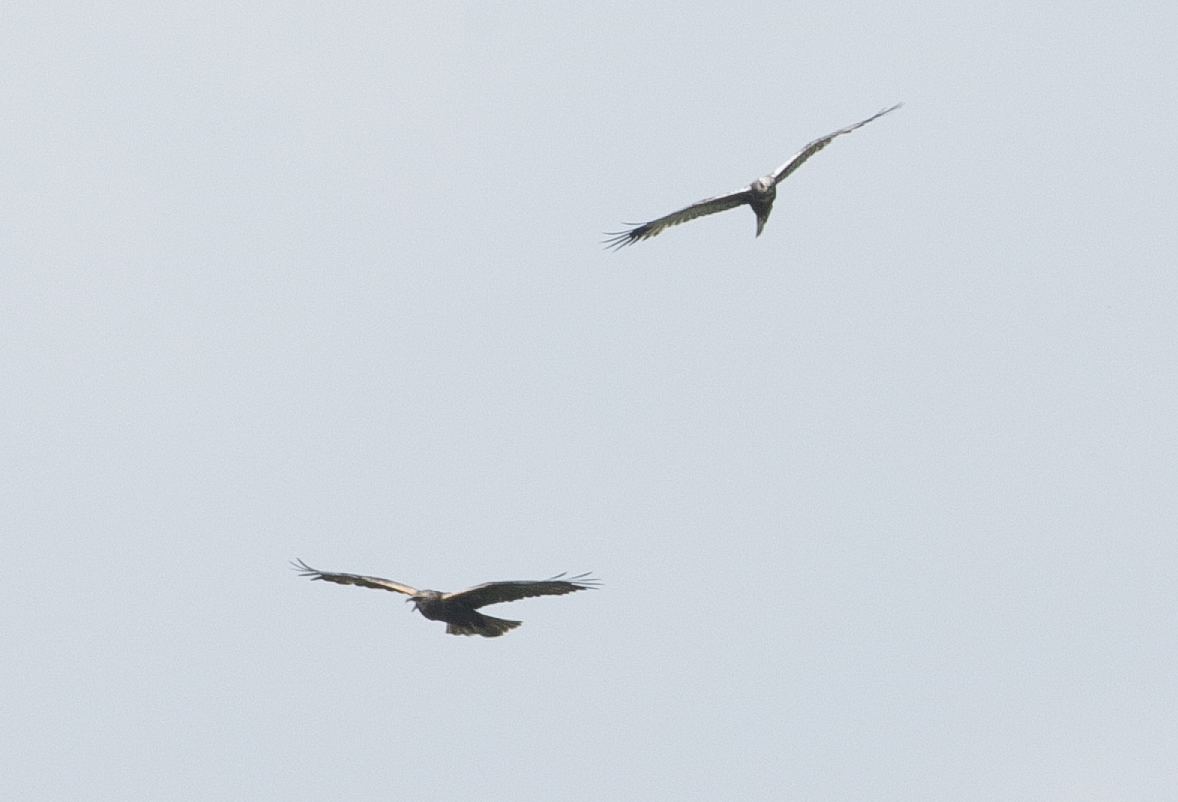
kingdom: Animalia
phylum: Chordata
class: Aves
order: Accipitriformes
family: Accipitridae
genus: Circus
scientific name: Circus aeruginosus
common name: Western marsh harrier
